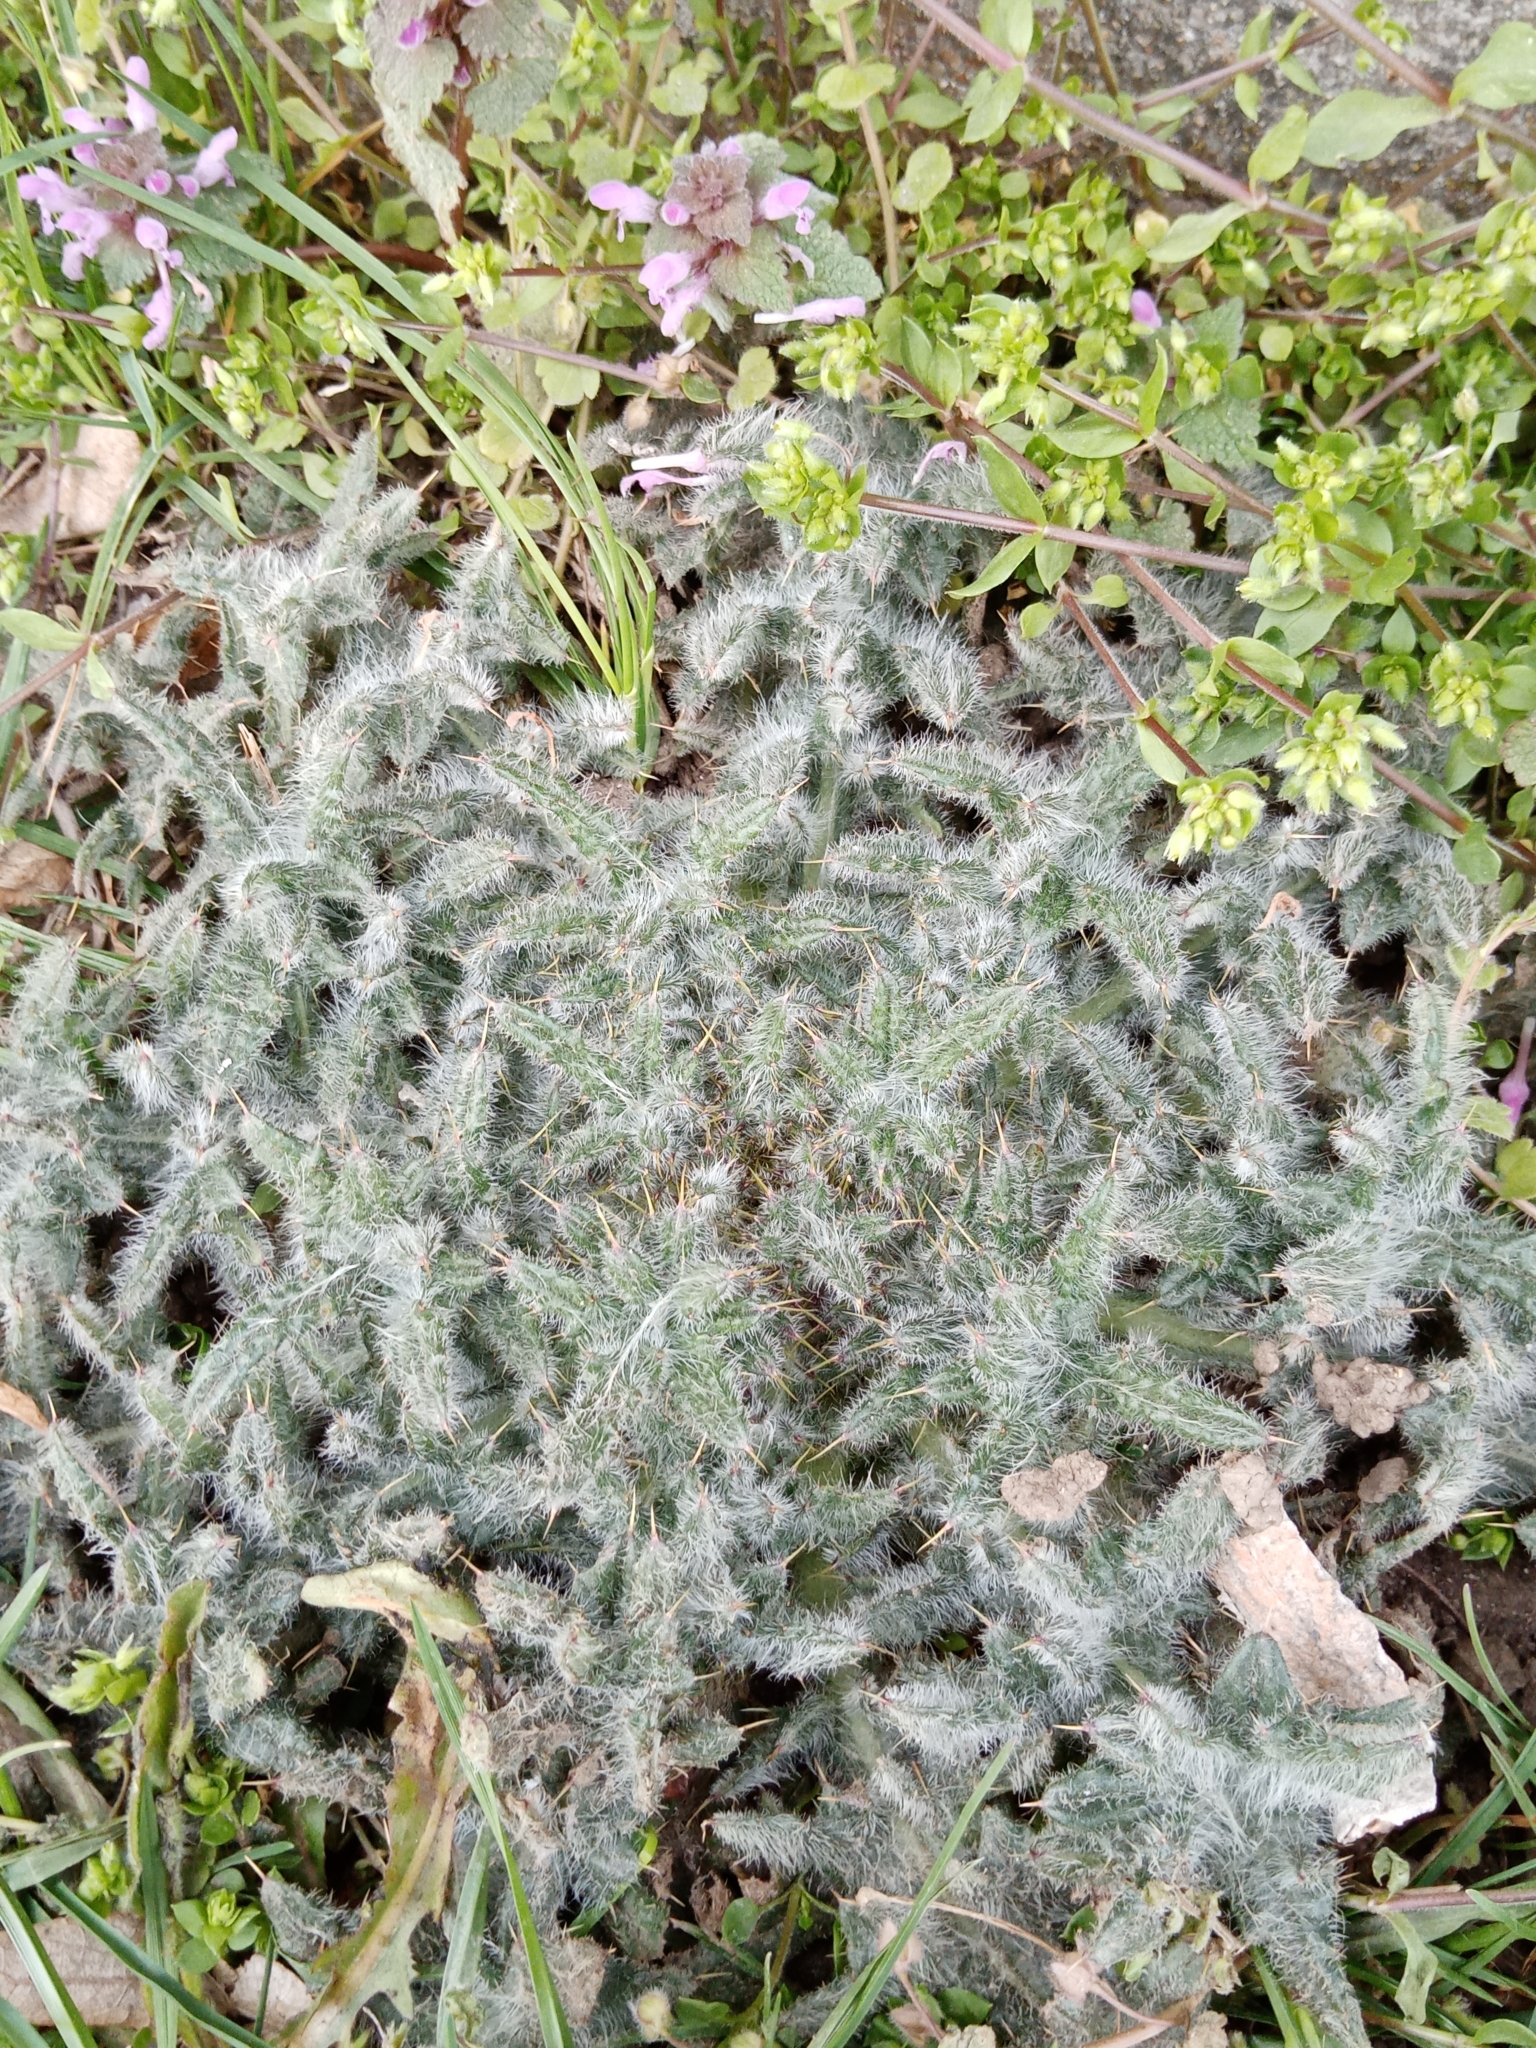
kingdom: Plantae
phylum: Tracheophyta
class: Magnoliopsida
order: Asterales
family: Asteraceae
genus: Cirsium
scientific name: Cirsium vulgare
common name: Bull thistle
